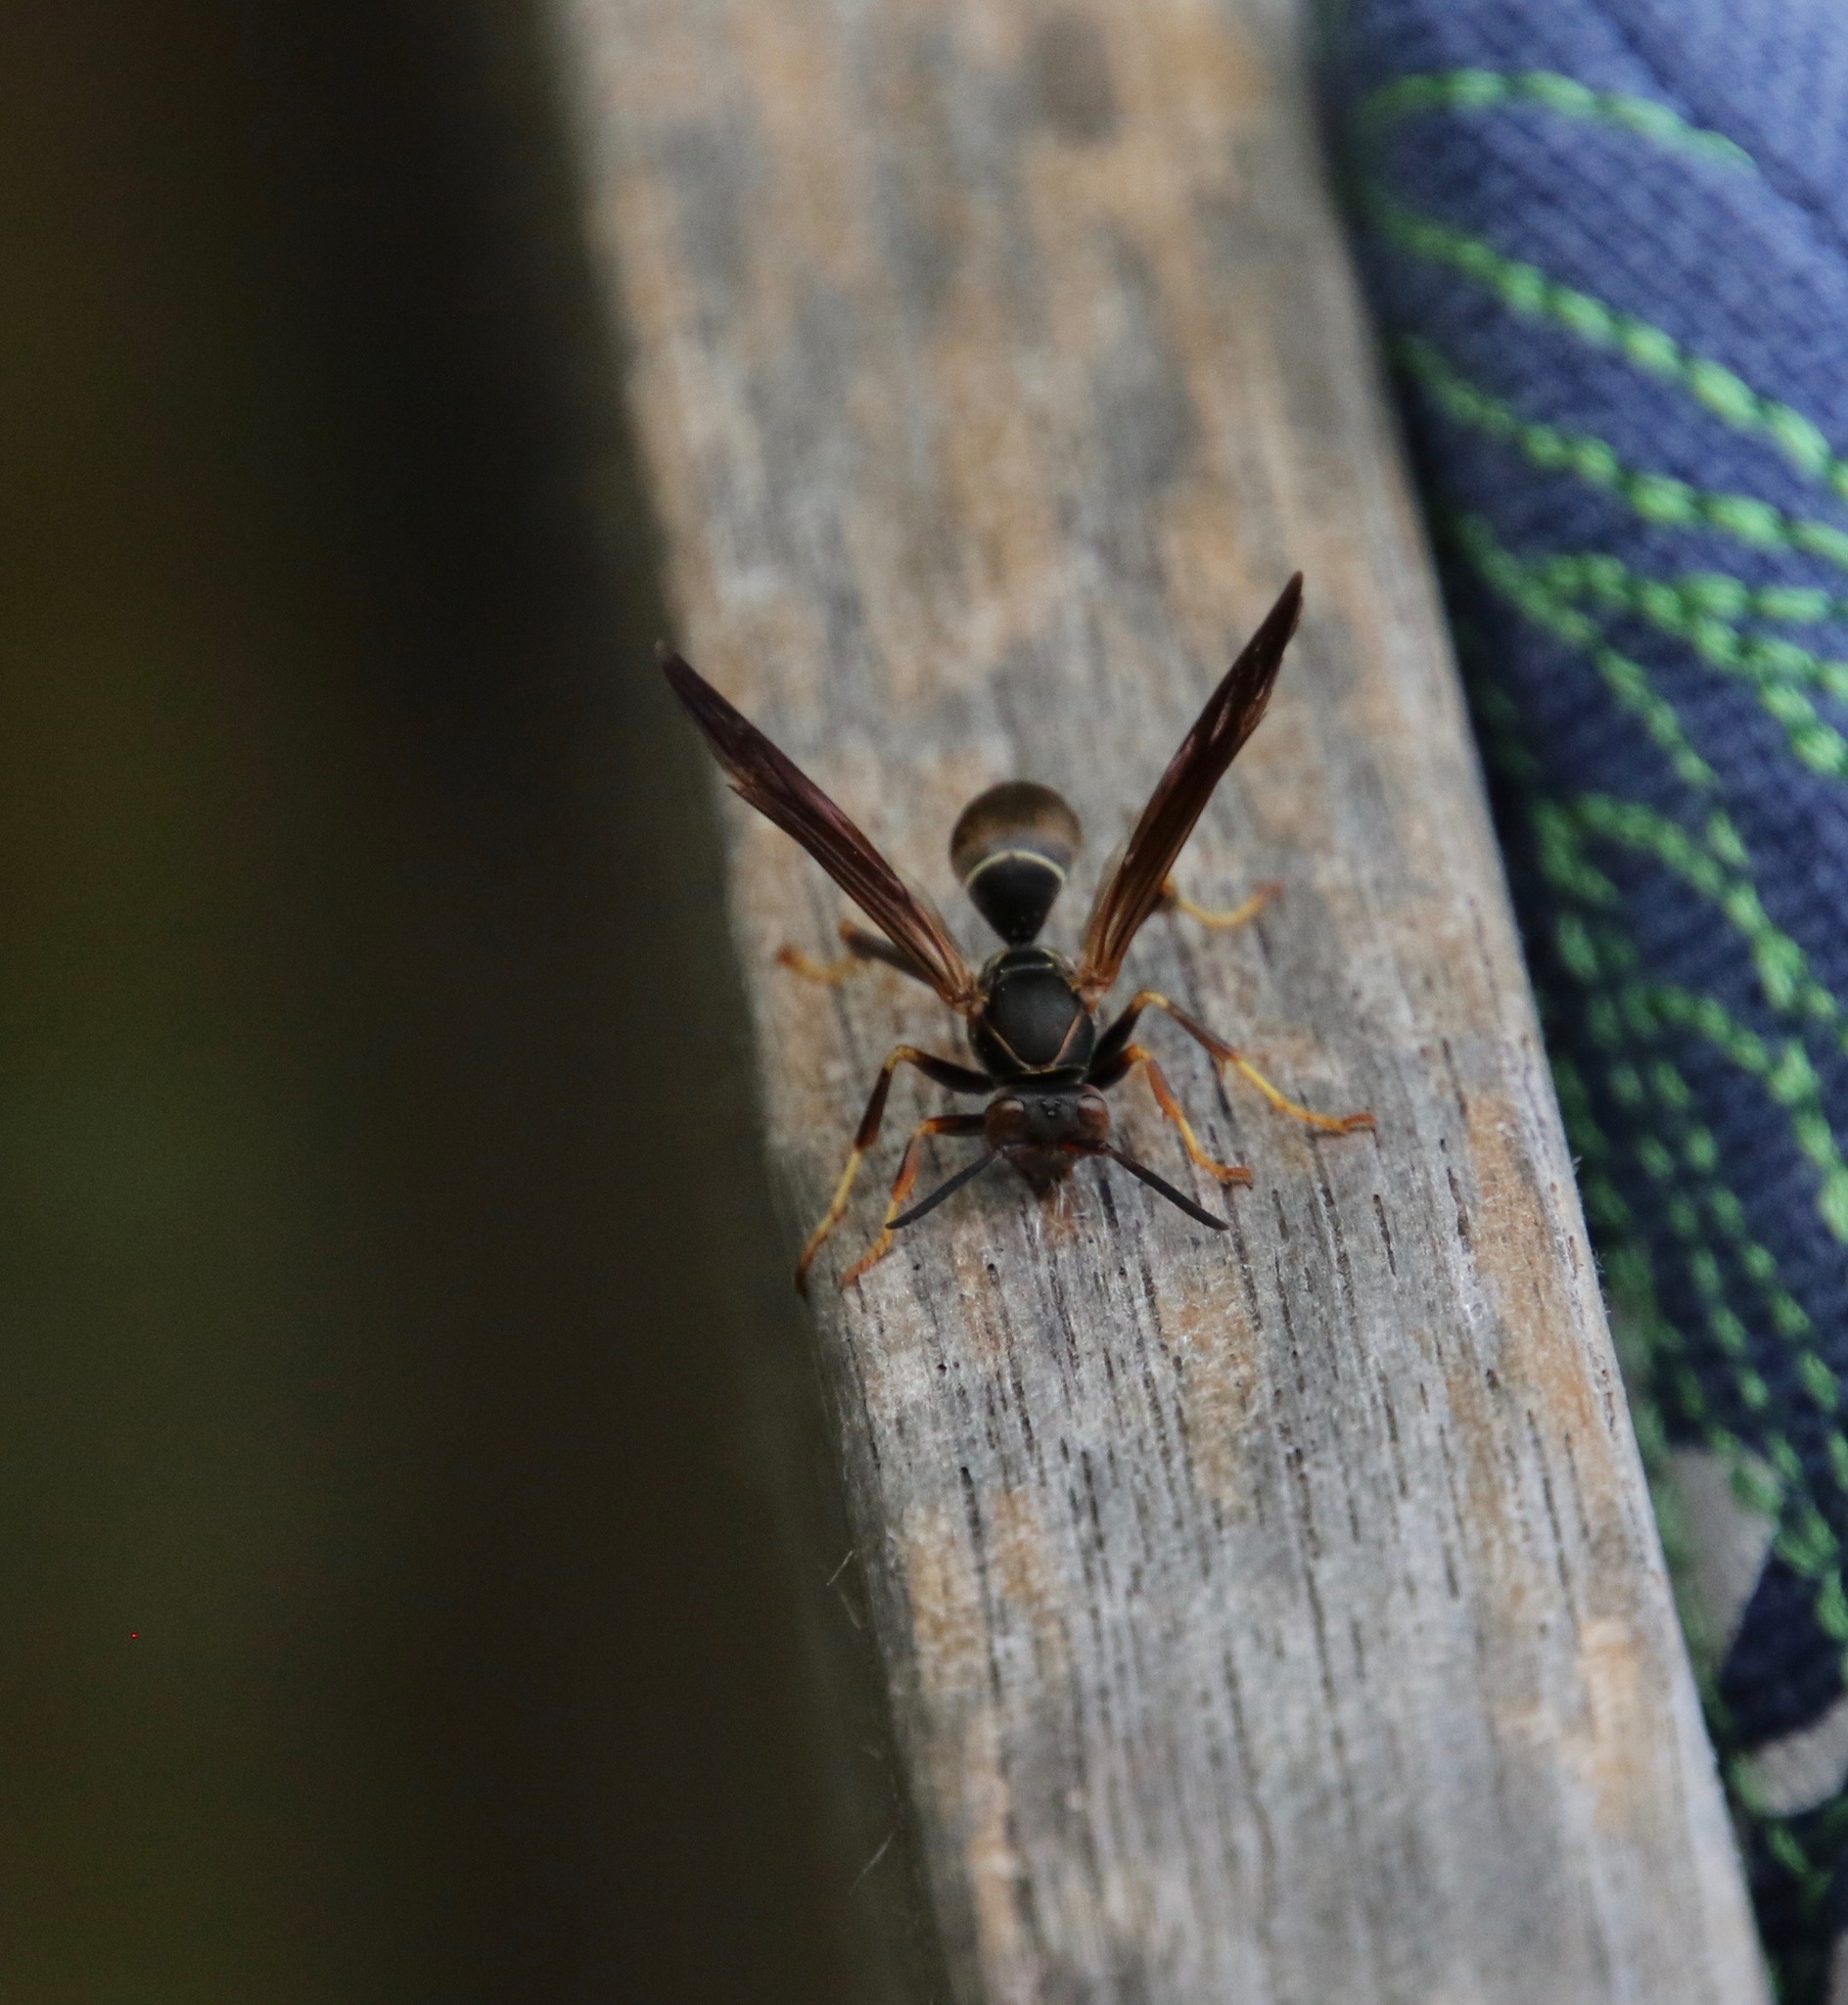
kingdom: Animalia
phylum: Arthropoda
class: Insecta
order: Hymenoptera
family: Eumenidae
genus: Polistes
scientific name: Polistes fuscatus
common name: Dark paper wasp
